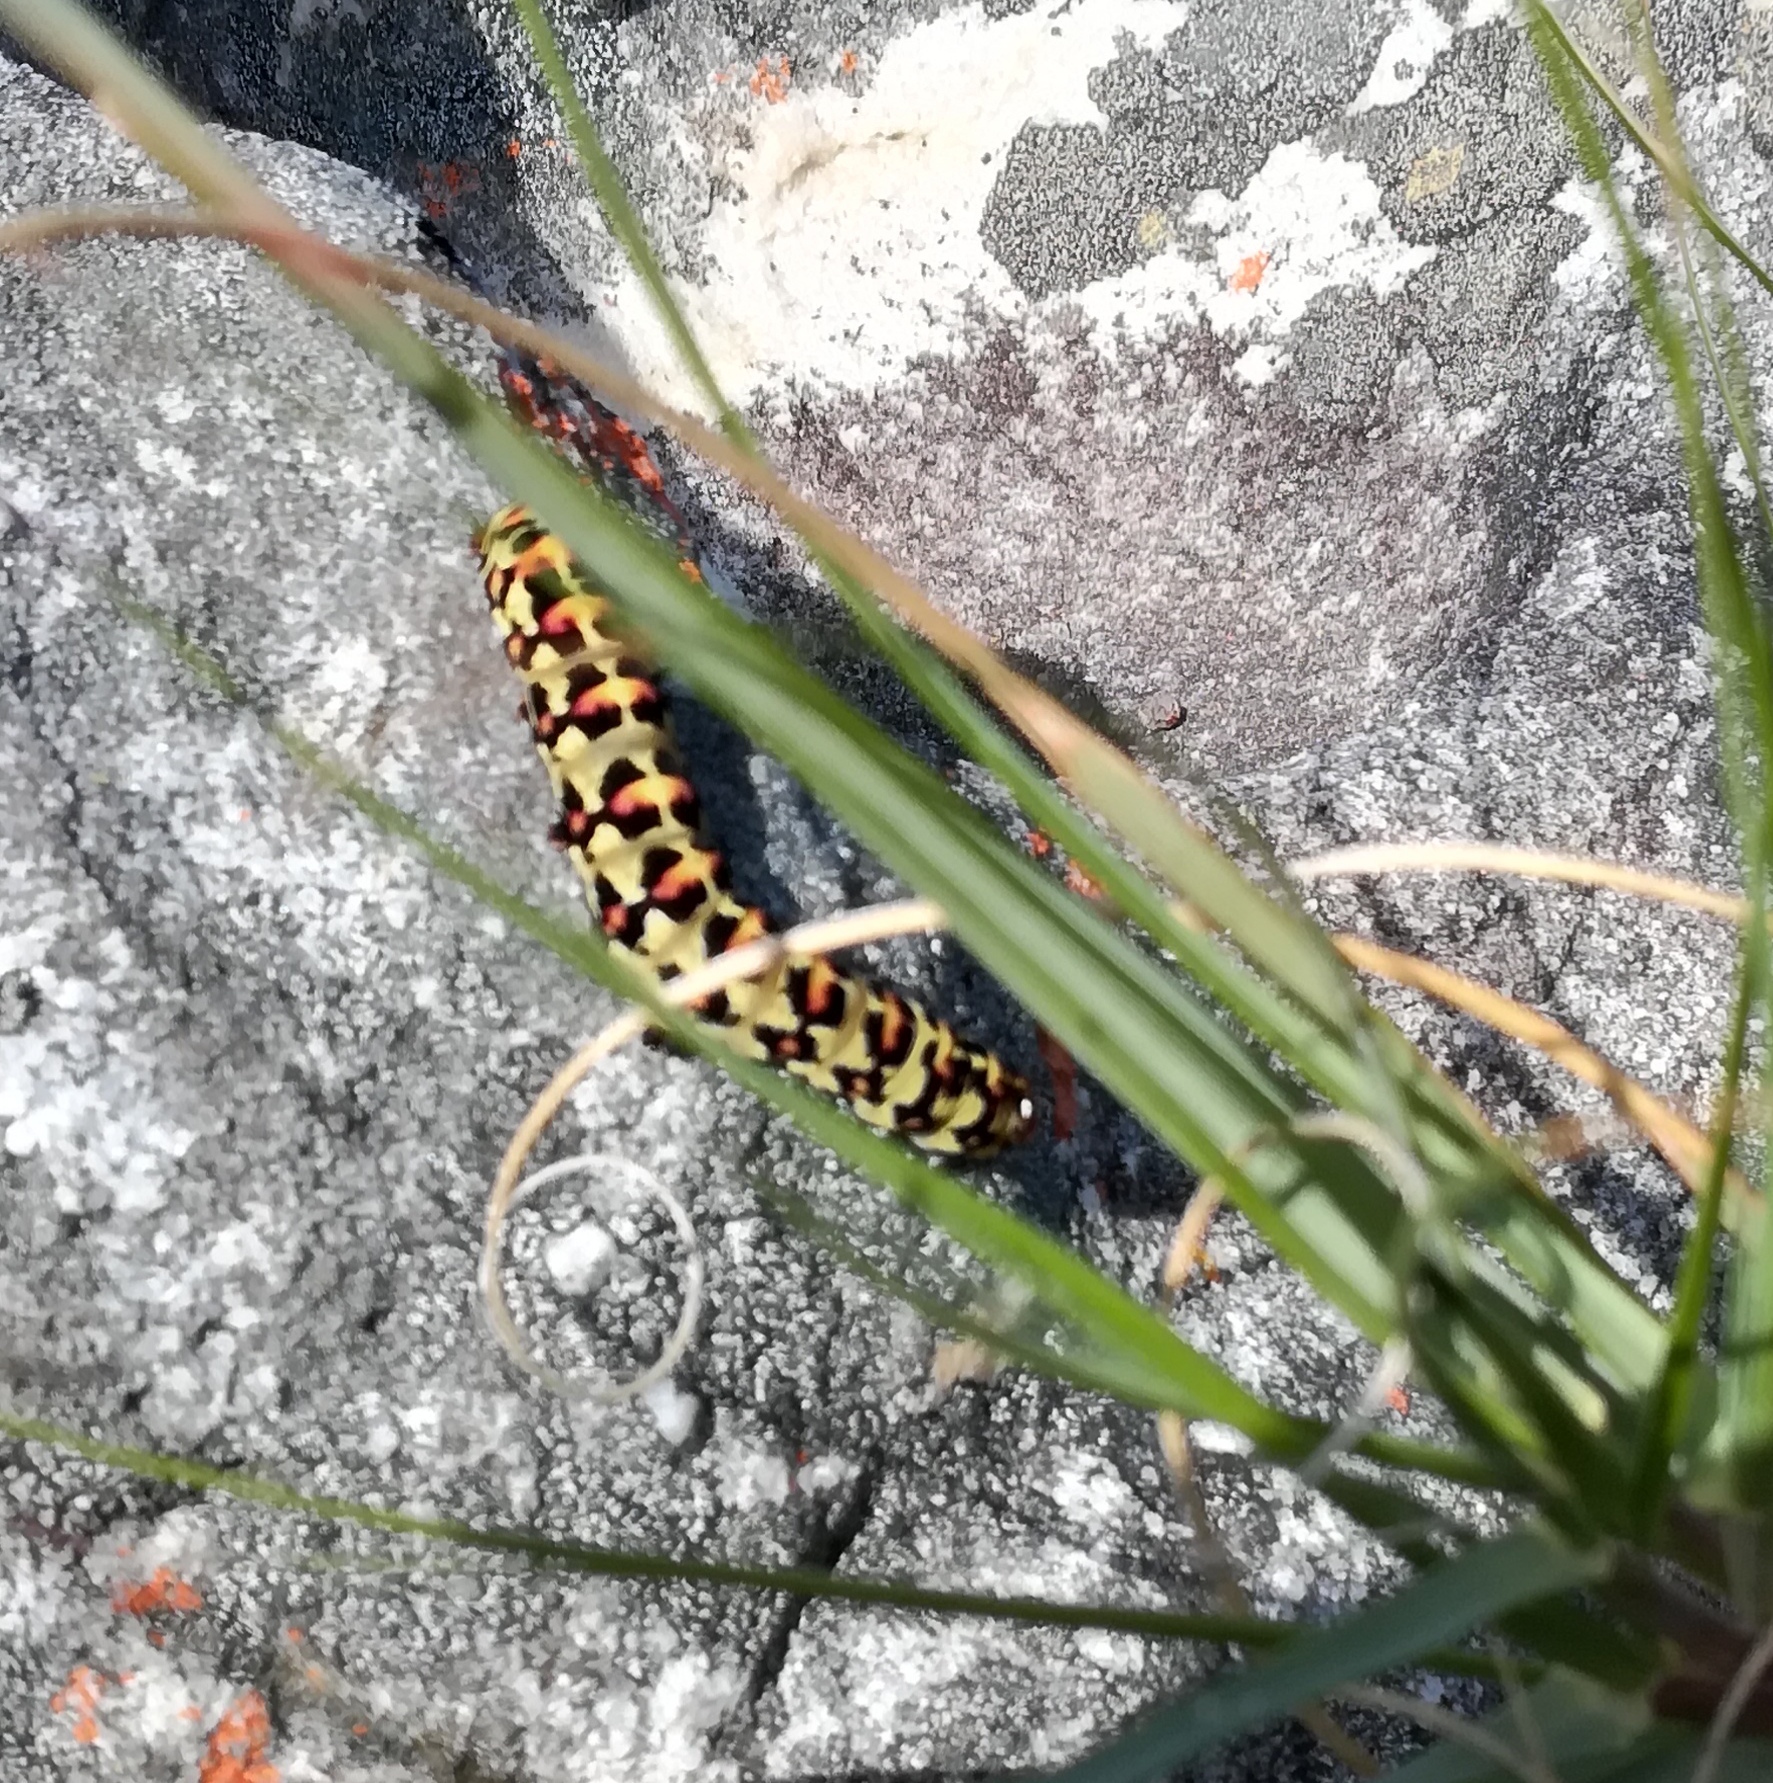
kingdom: Animalia
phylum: Arthropoda
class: Insecta
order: Lepidoptera
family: Noctuidae
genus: Diaphone
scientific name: Diaphone eumela
